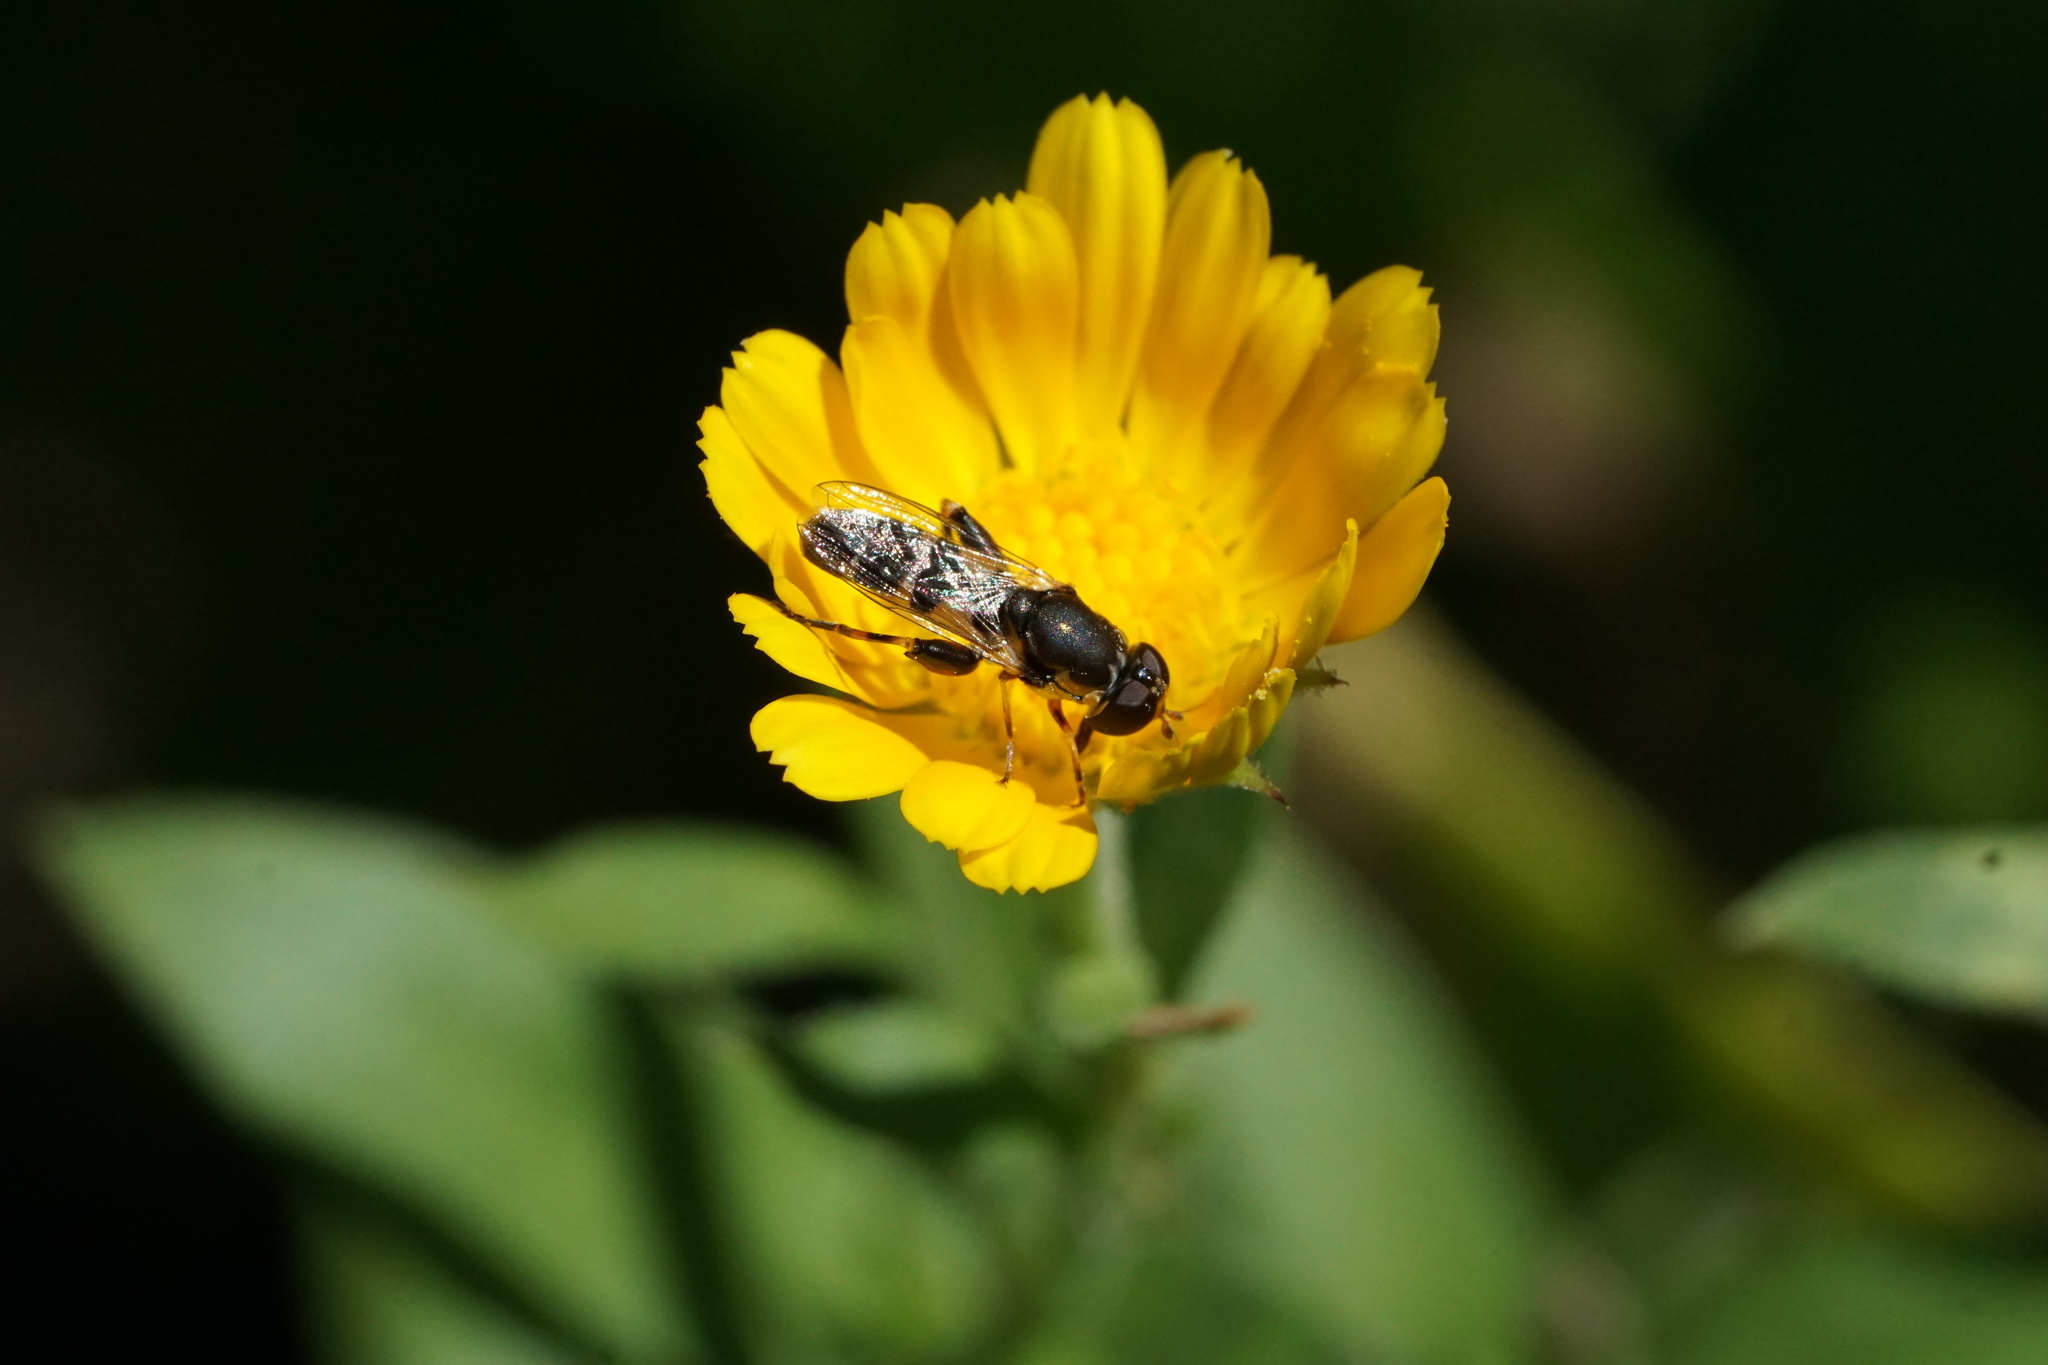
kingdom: Animalia
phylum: Arthropoda
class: Insecta
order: Diptera
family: Syrphidae
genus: Syritta
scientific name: Syritta pipiens
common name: Hover fly
